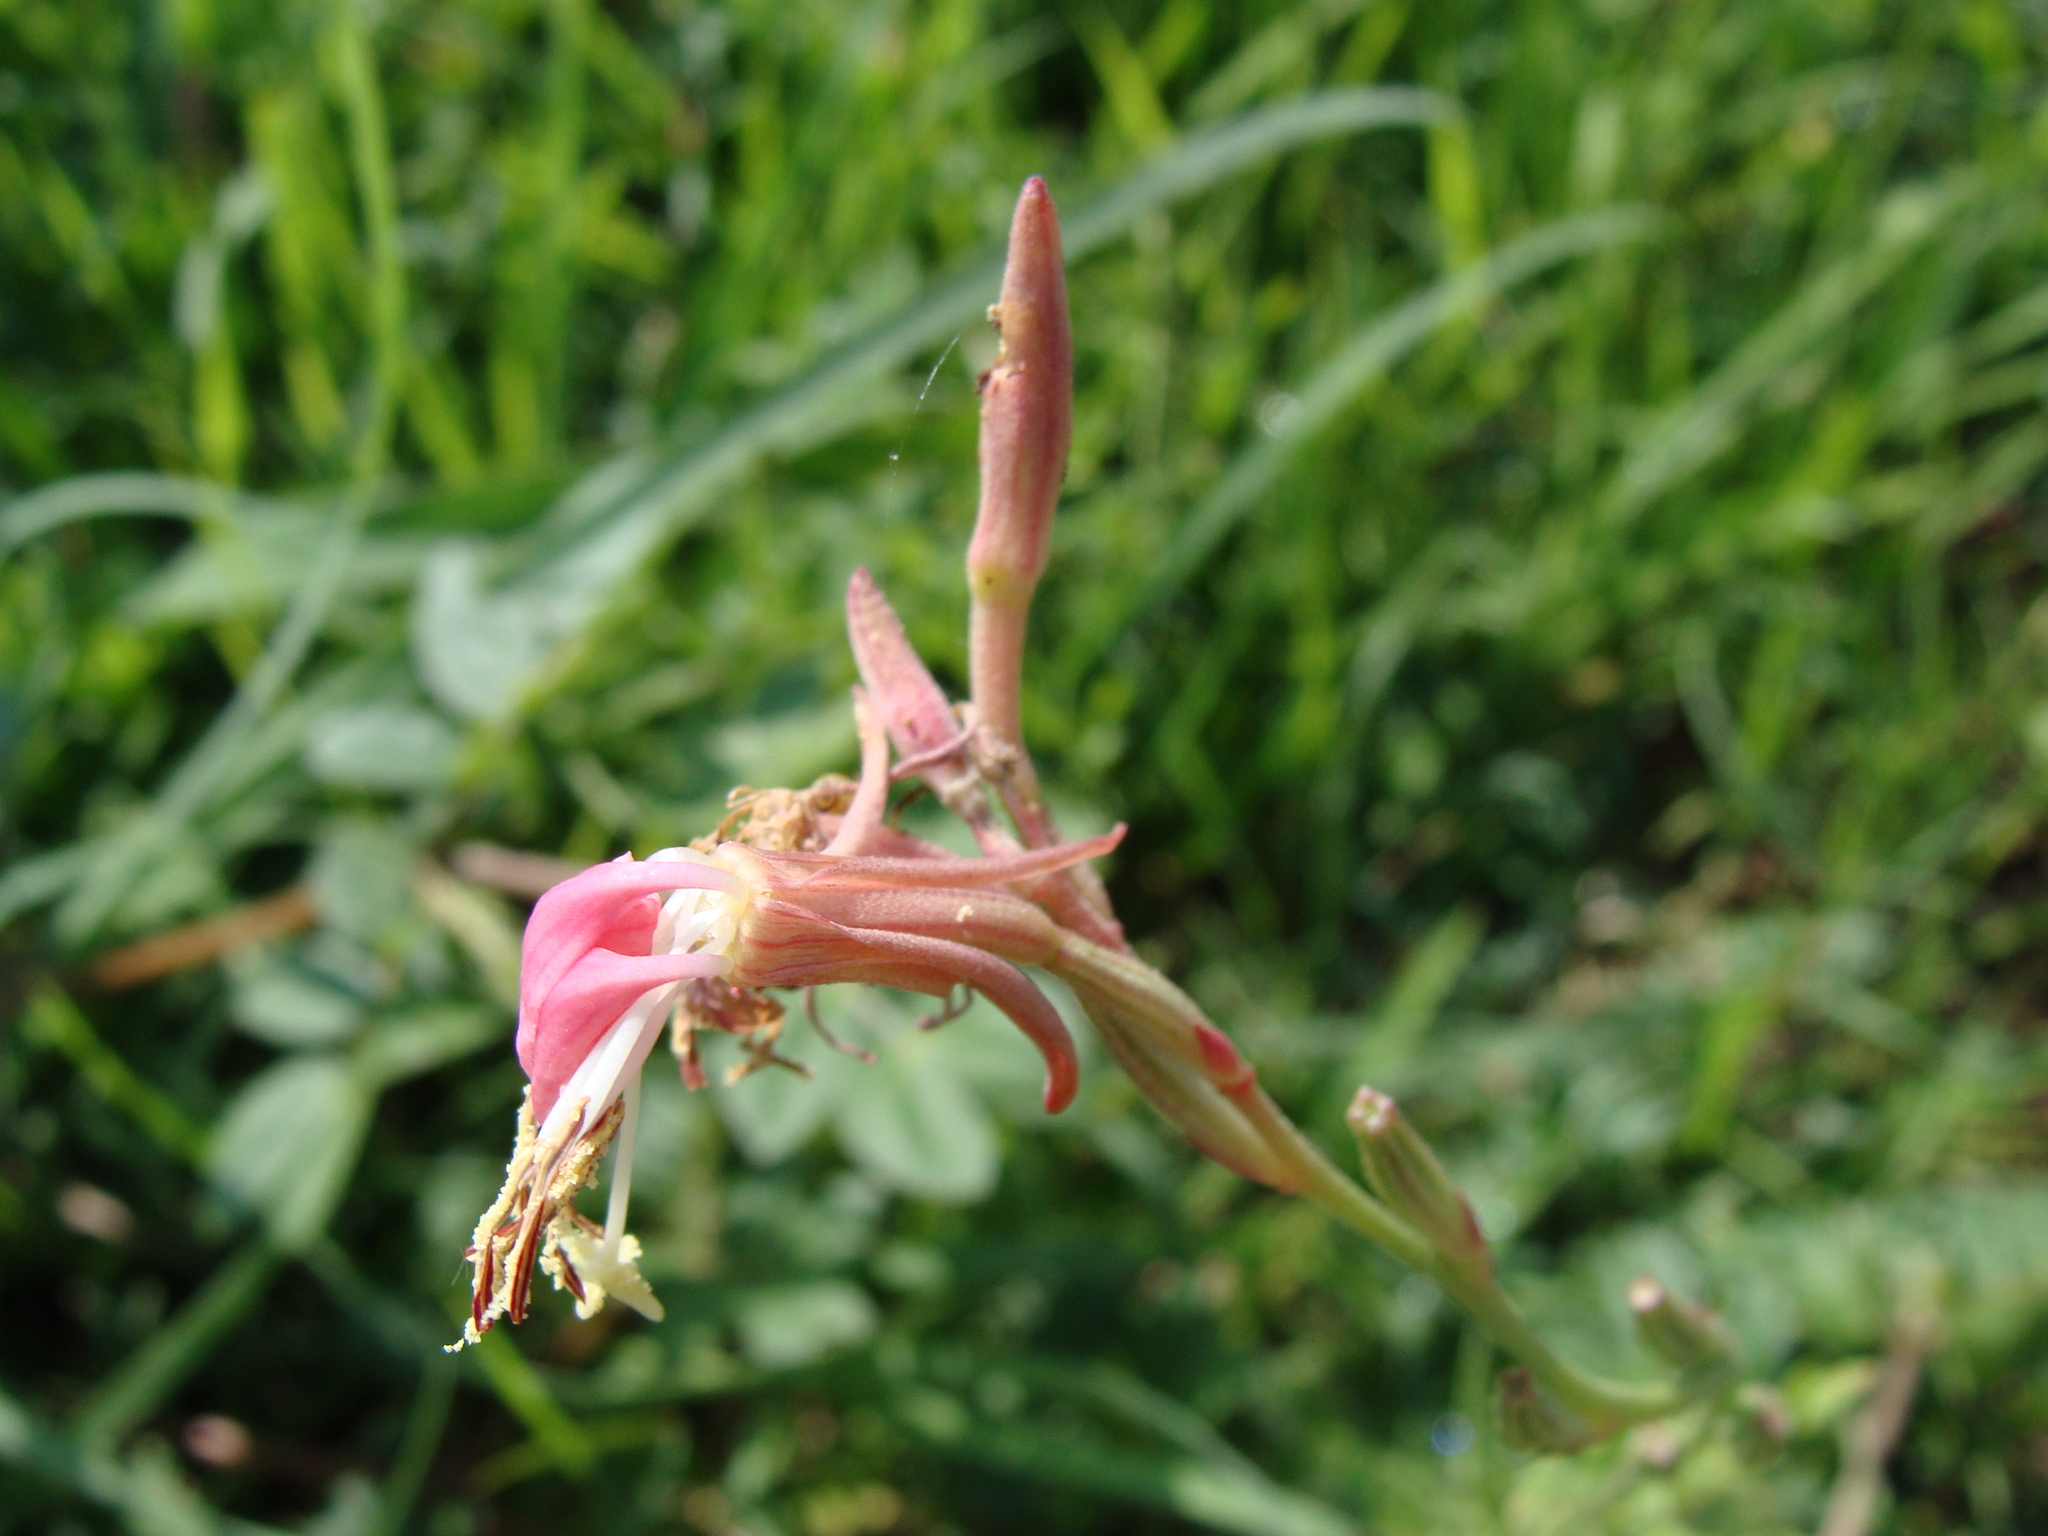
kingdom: Plantae
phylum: Tracheophyta
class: Magnoliopsida
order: Myrtales
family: Onagraceae
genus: Oenothera
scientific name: Oenothera suffrutescens
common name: Scarlet beeblossom
